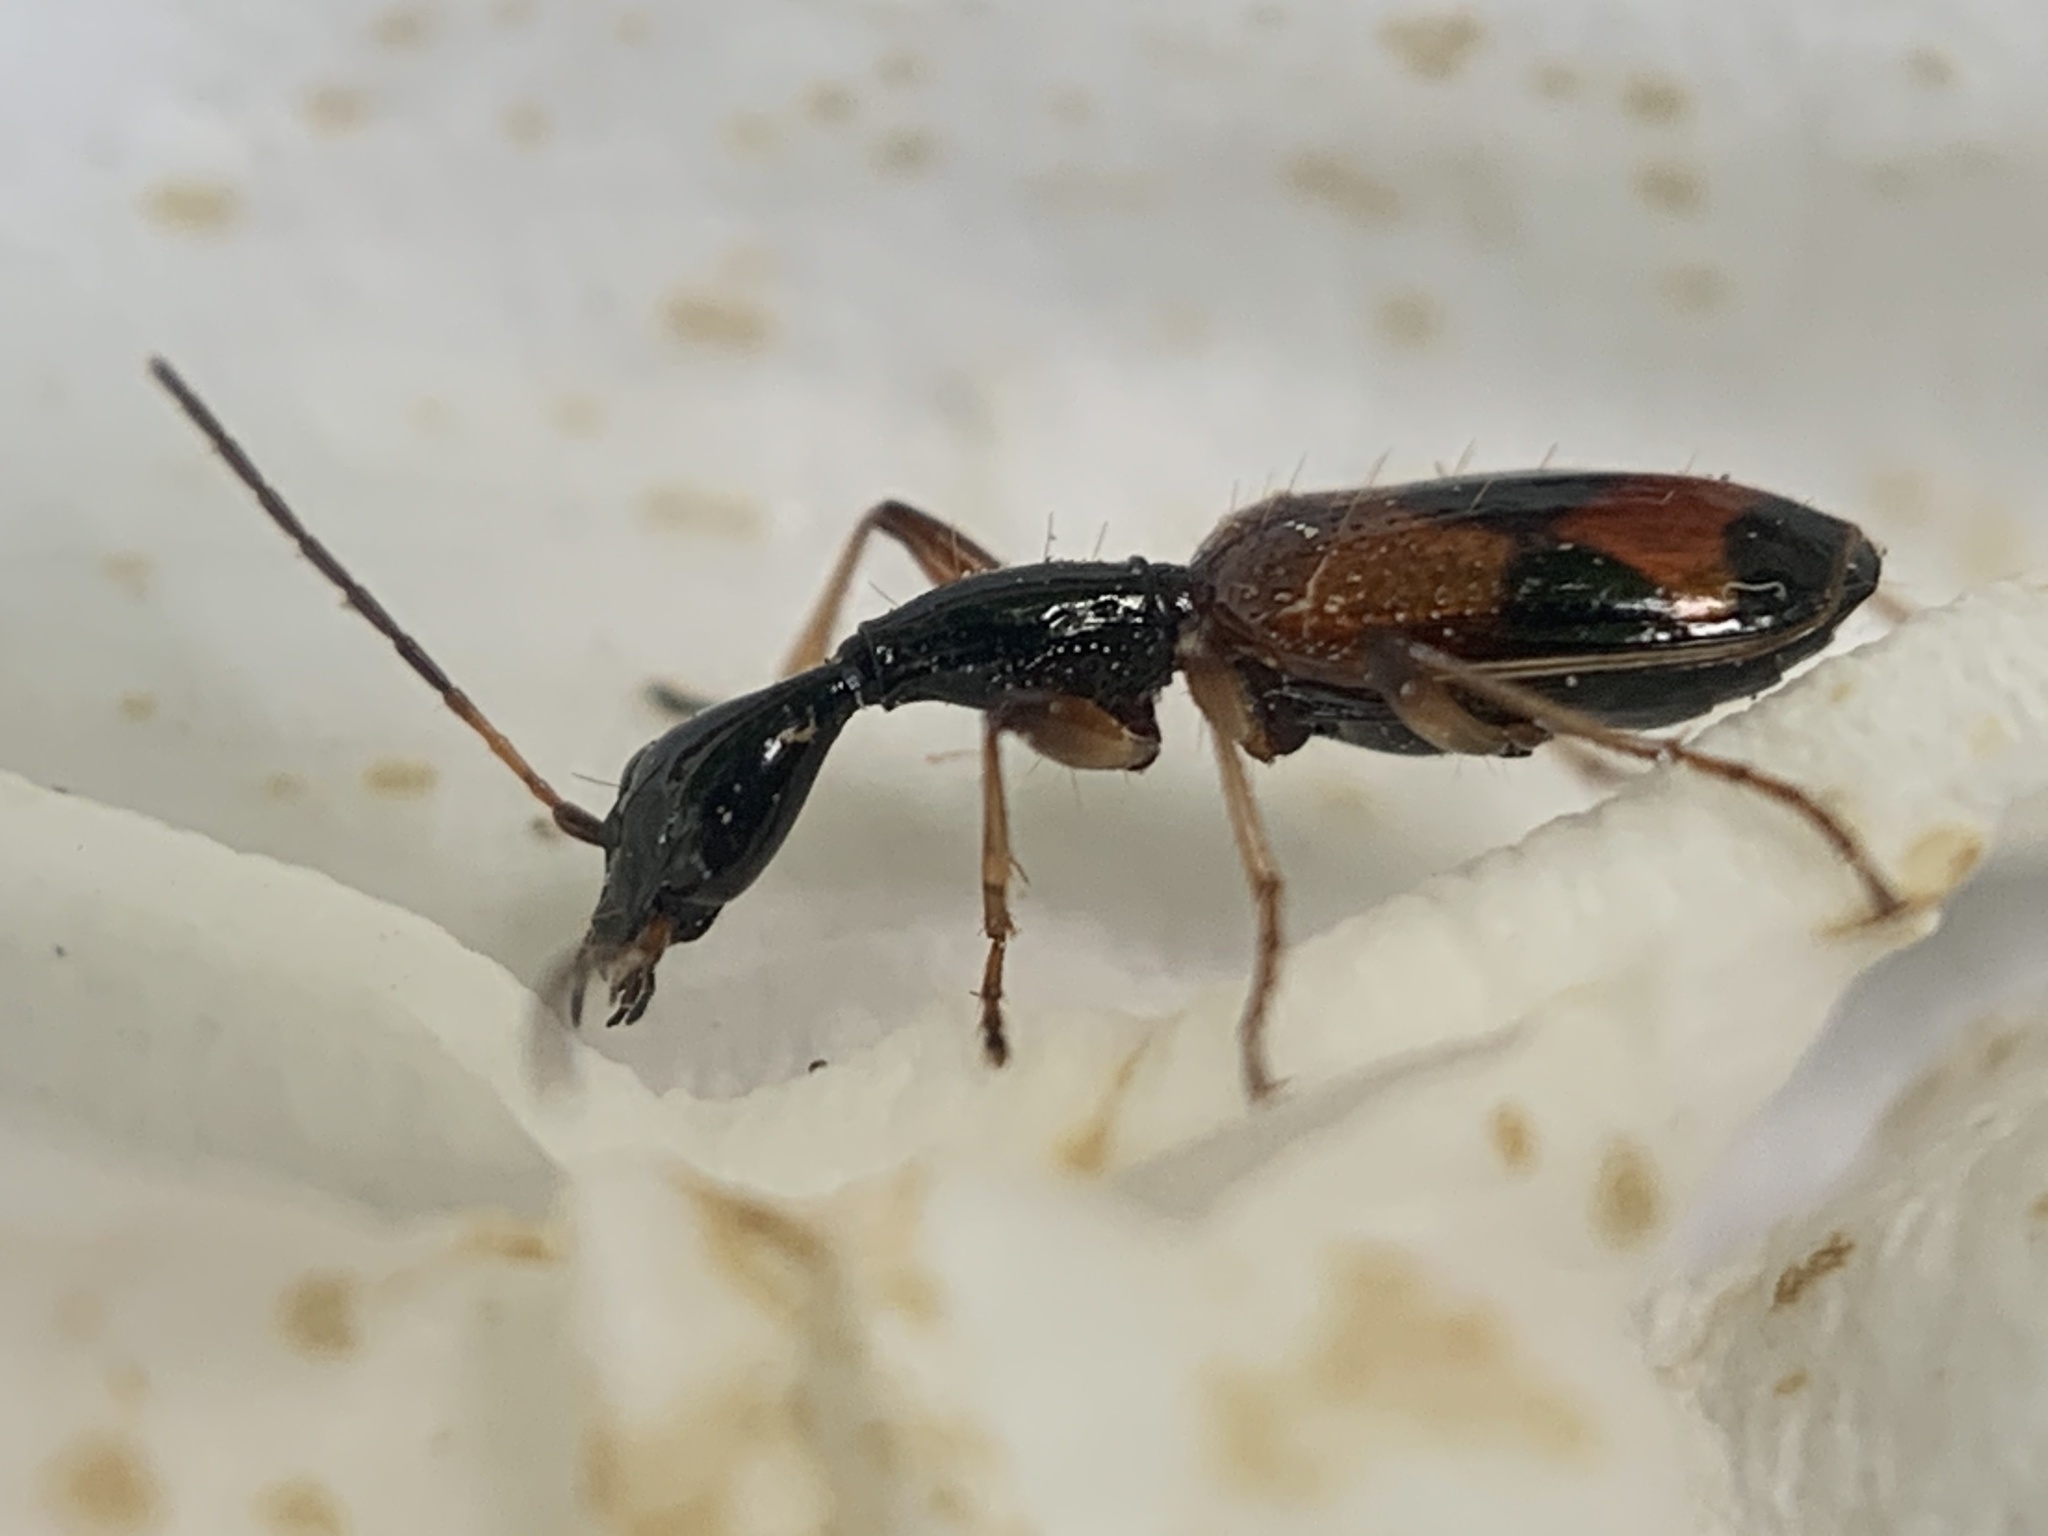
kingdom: Animalia
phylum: Arthropoda
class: Insecta
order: Coleoptera
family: Carabidae
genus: Colliuris
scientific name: Colliuris pensylvanica
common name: Long-necked ground beetle
